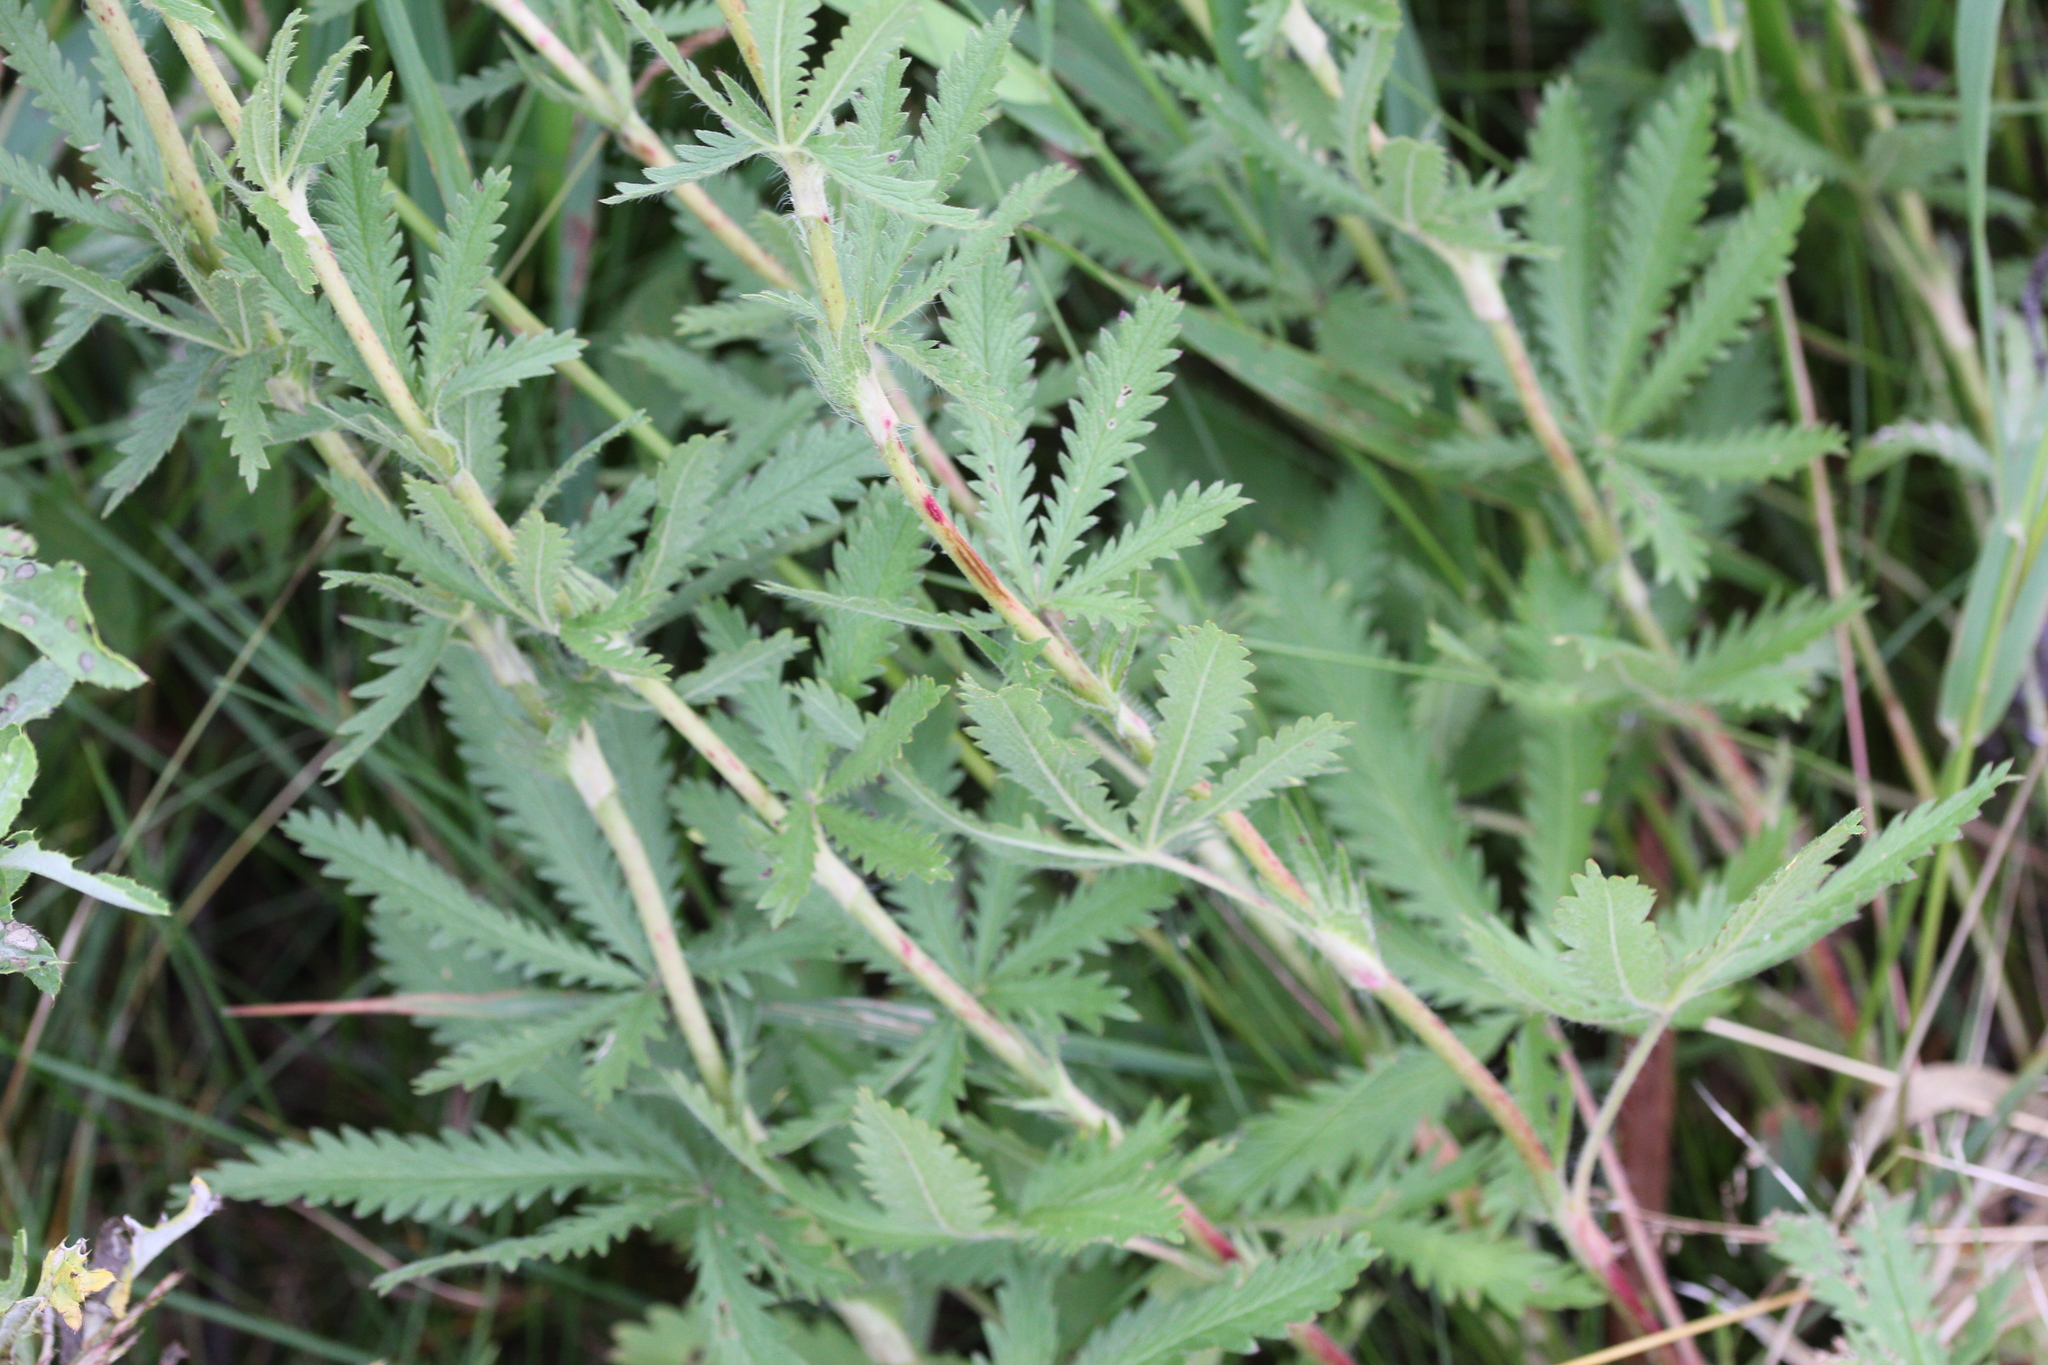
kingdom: Plantae
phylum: Tracheophyta
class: Magnoliopsida
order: Rosales
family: Rosaceae
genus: Potentilla
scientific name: Potentilla recta
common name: Sulphur cinquefoil
